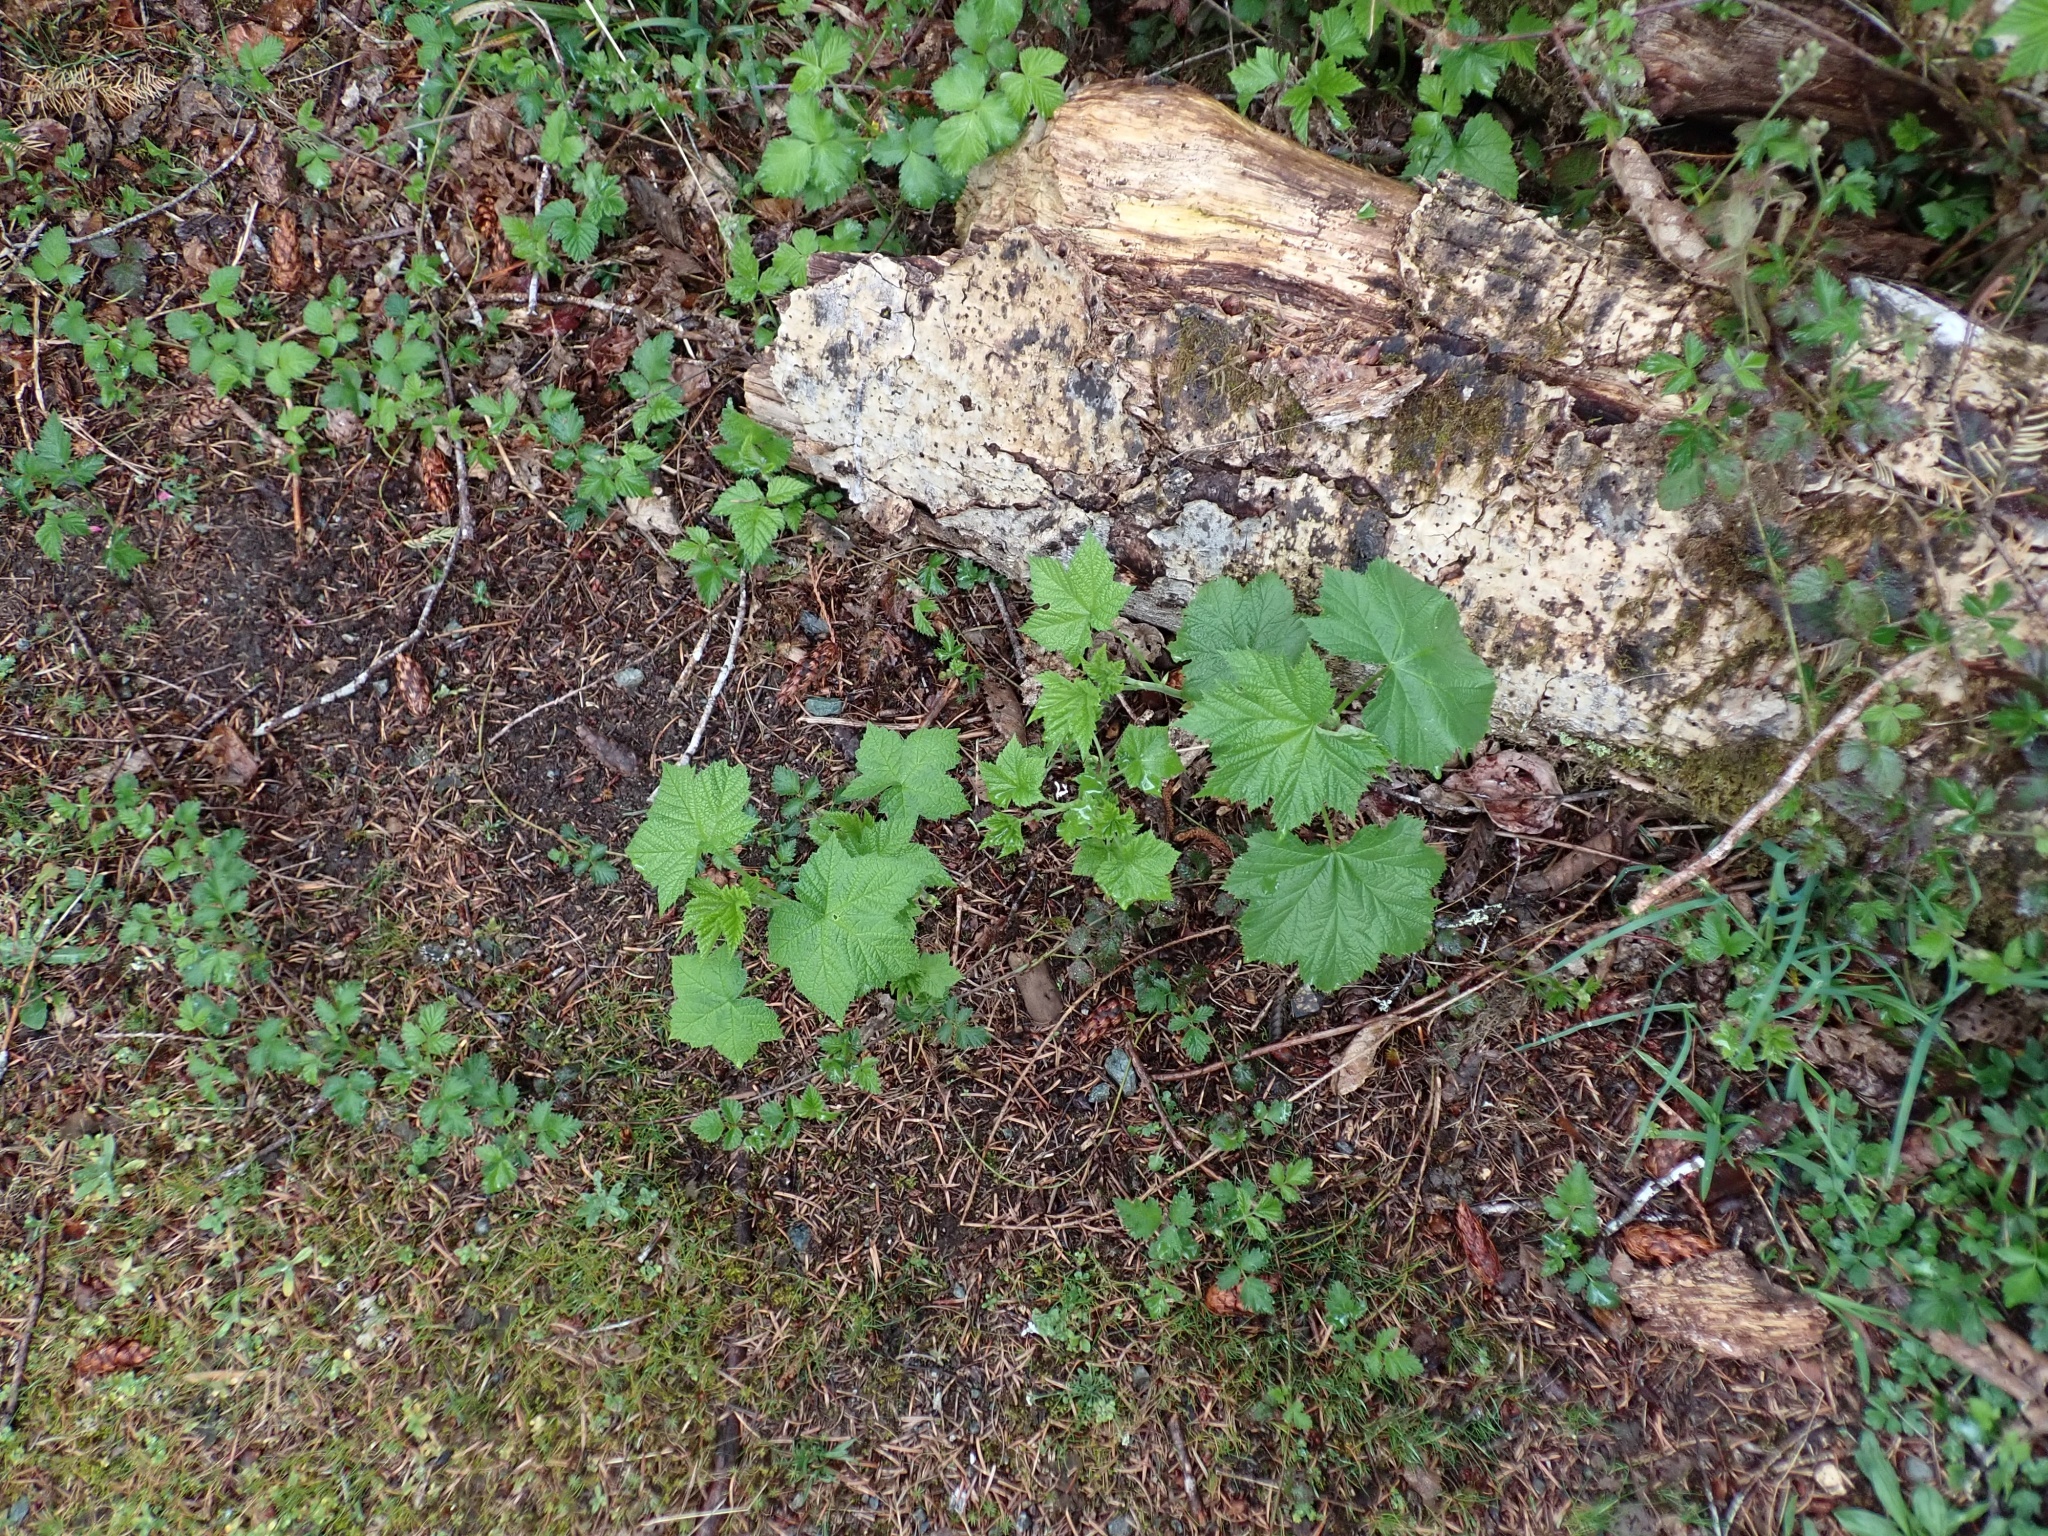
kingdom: Plantae
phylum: Tracheophyta
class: Magnoliopsida
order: Rosales
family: Rosaceae
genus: Rubus
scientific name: Rubus parviflorus
